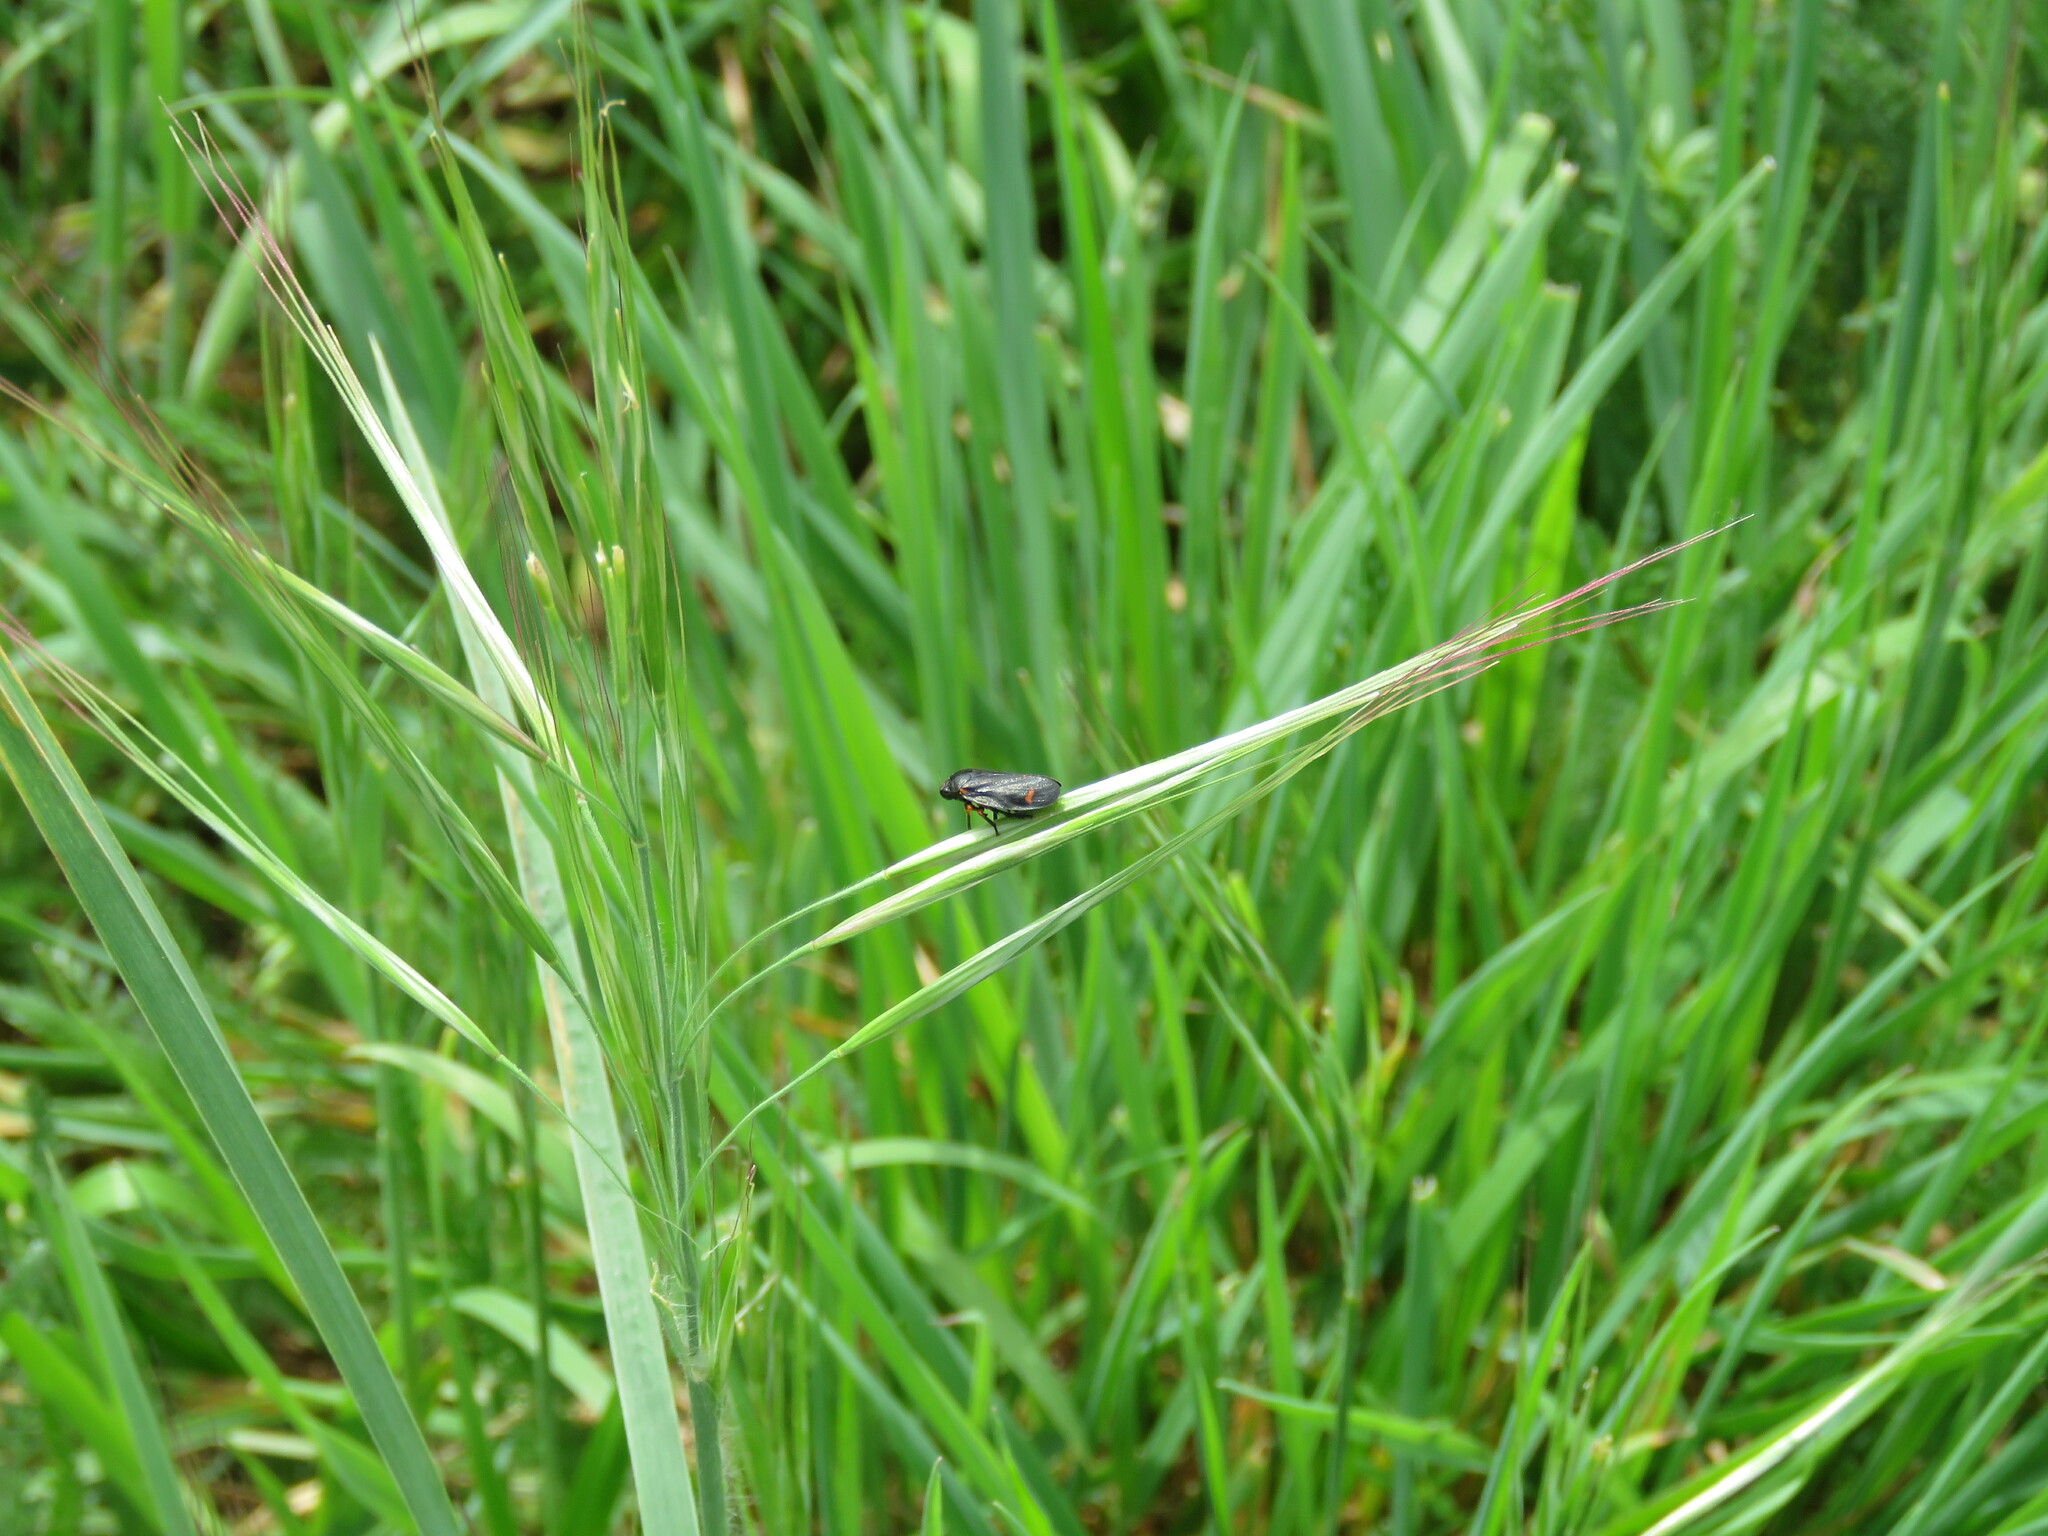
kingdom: Animalia
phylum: Arthropoda
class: Insecta
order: Hemiptera
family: Cercopidae
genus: Cercopis
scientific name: Cercopis intermedia
